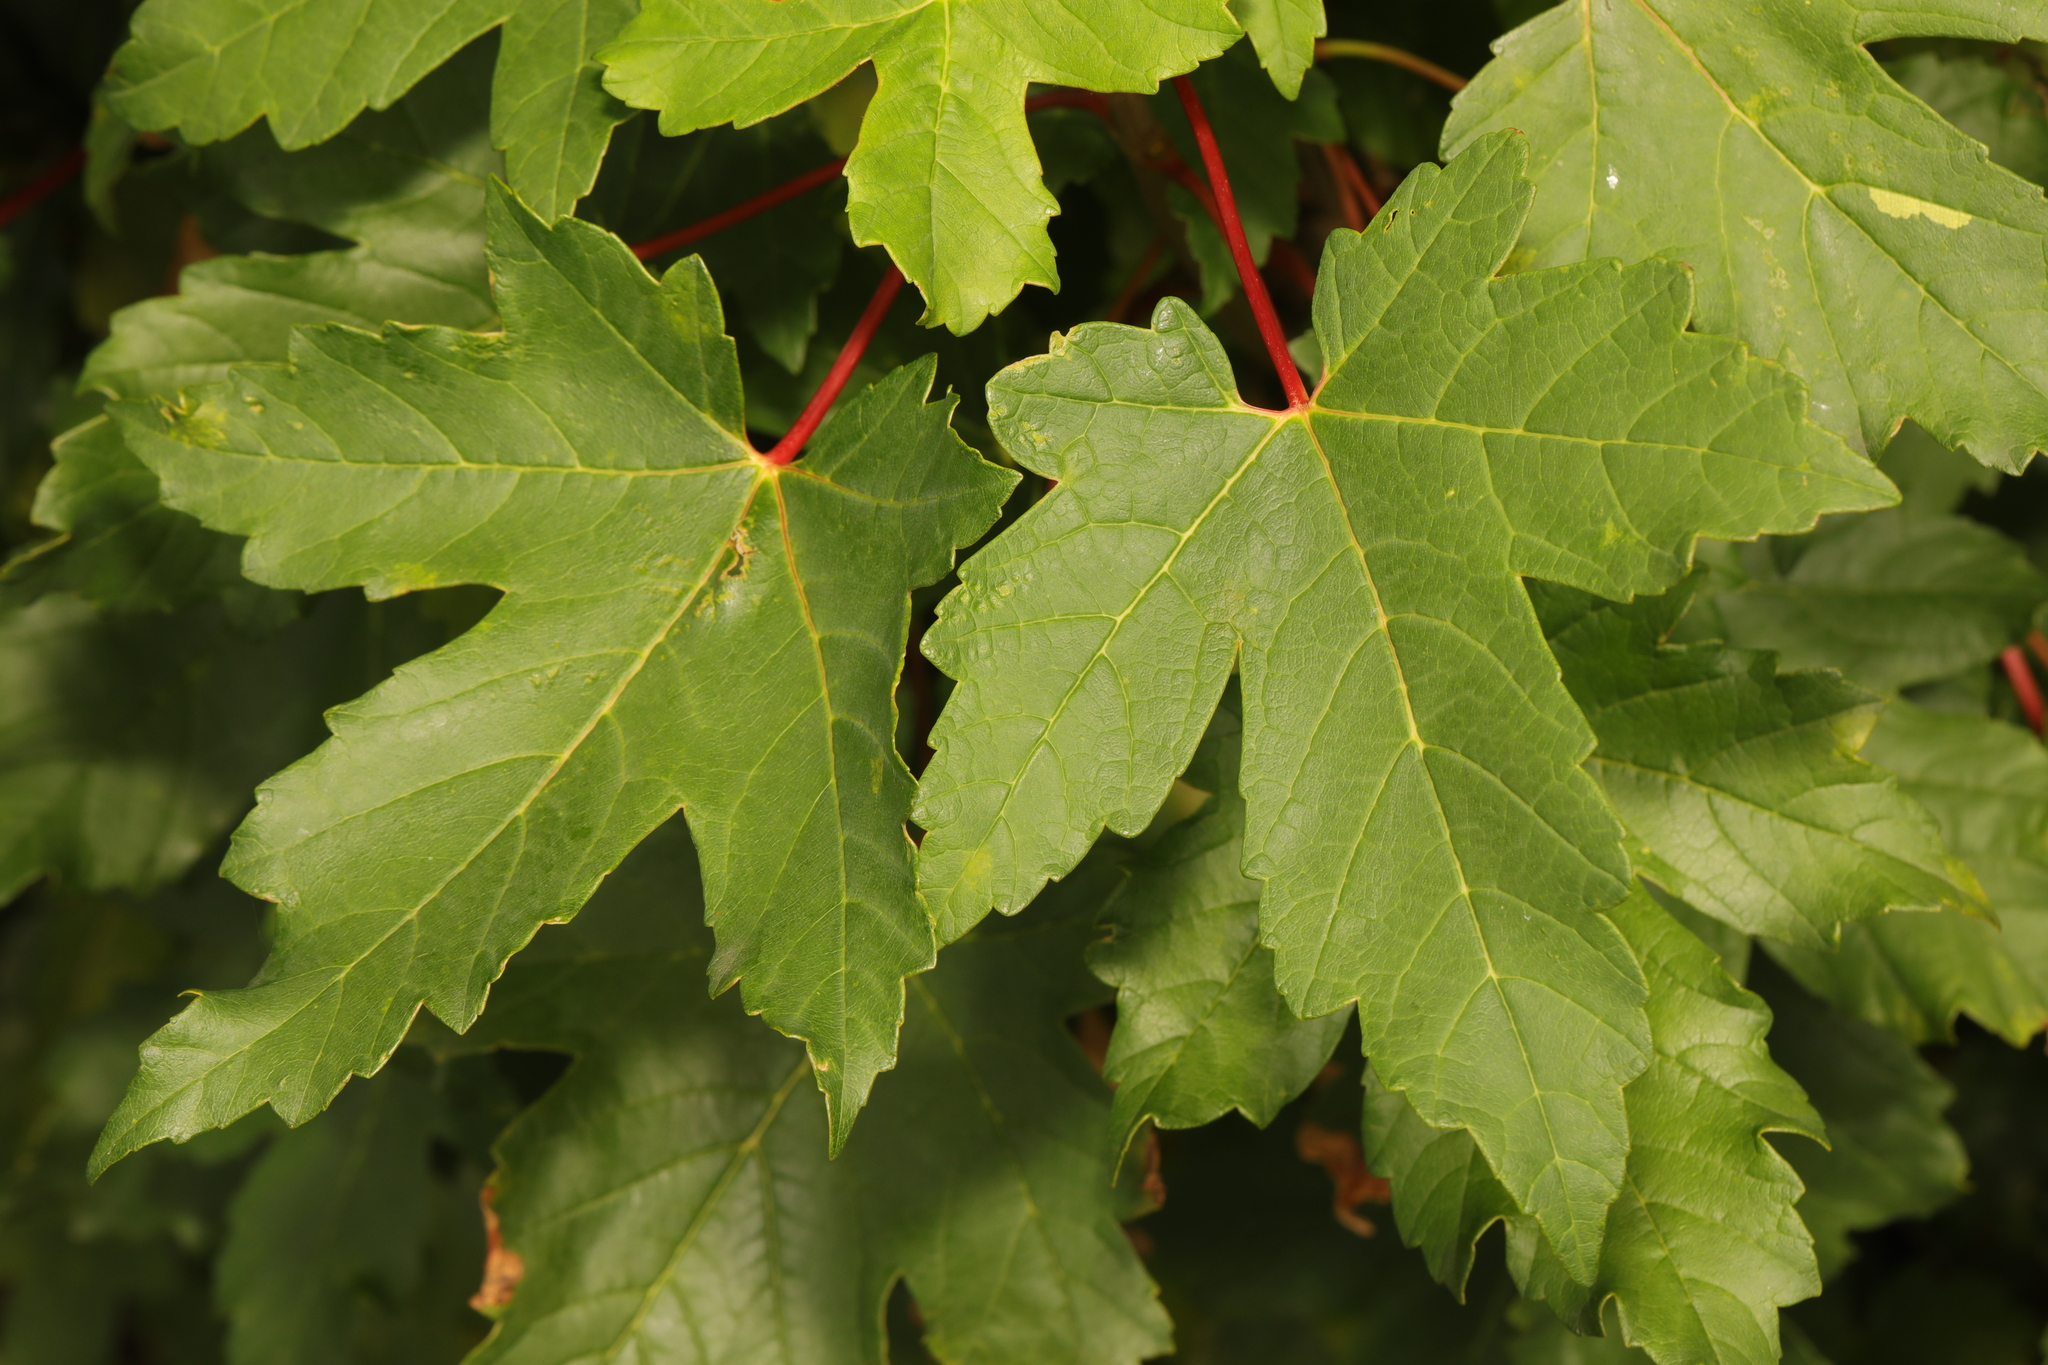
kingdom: Plantae
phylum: Tracheophyta
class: Magnoliopsida
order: Sapindales
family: Sapindaceae
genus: Acer
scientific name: Acer pseudoplatanus
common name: Sycamore
